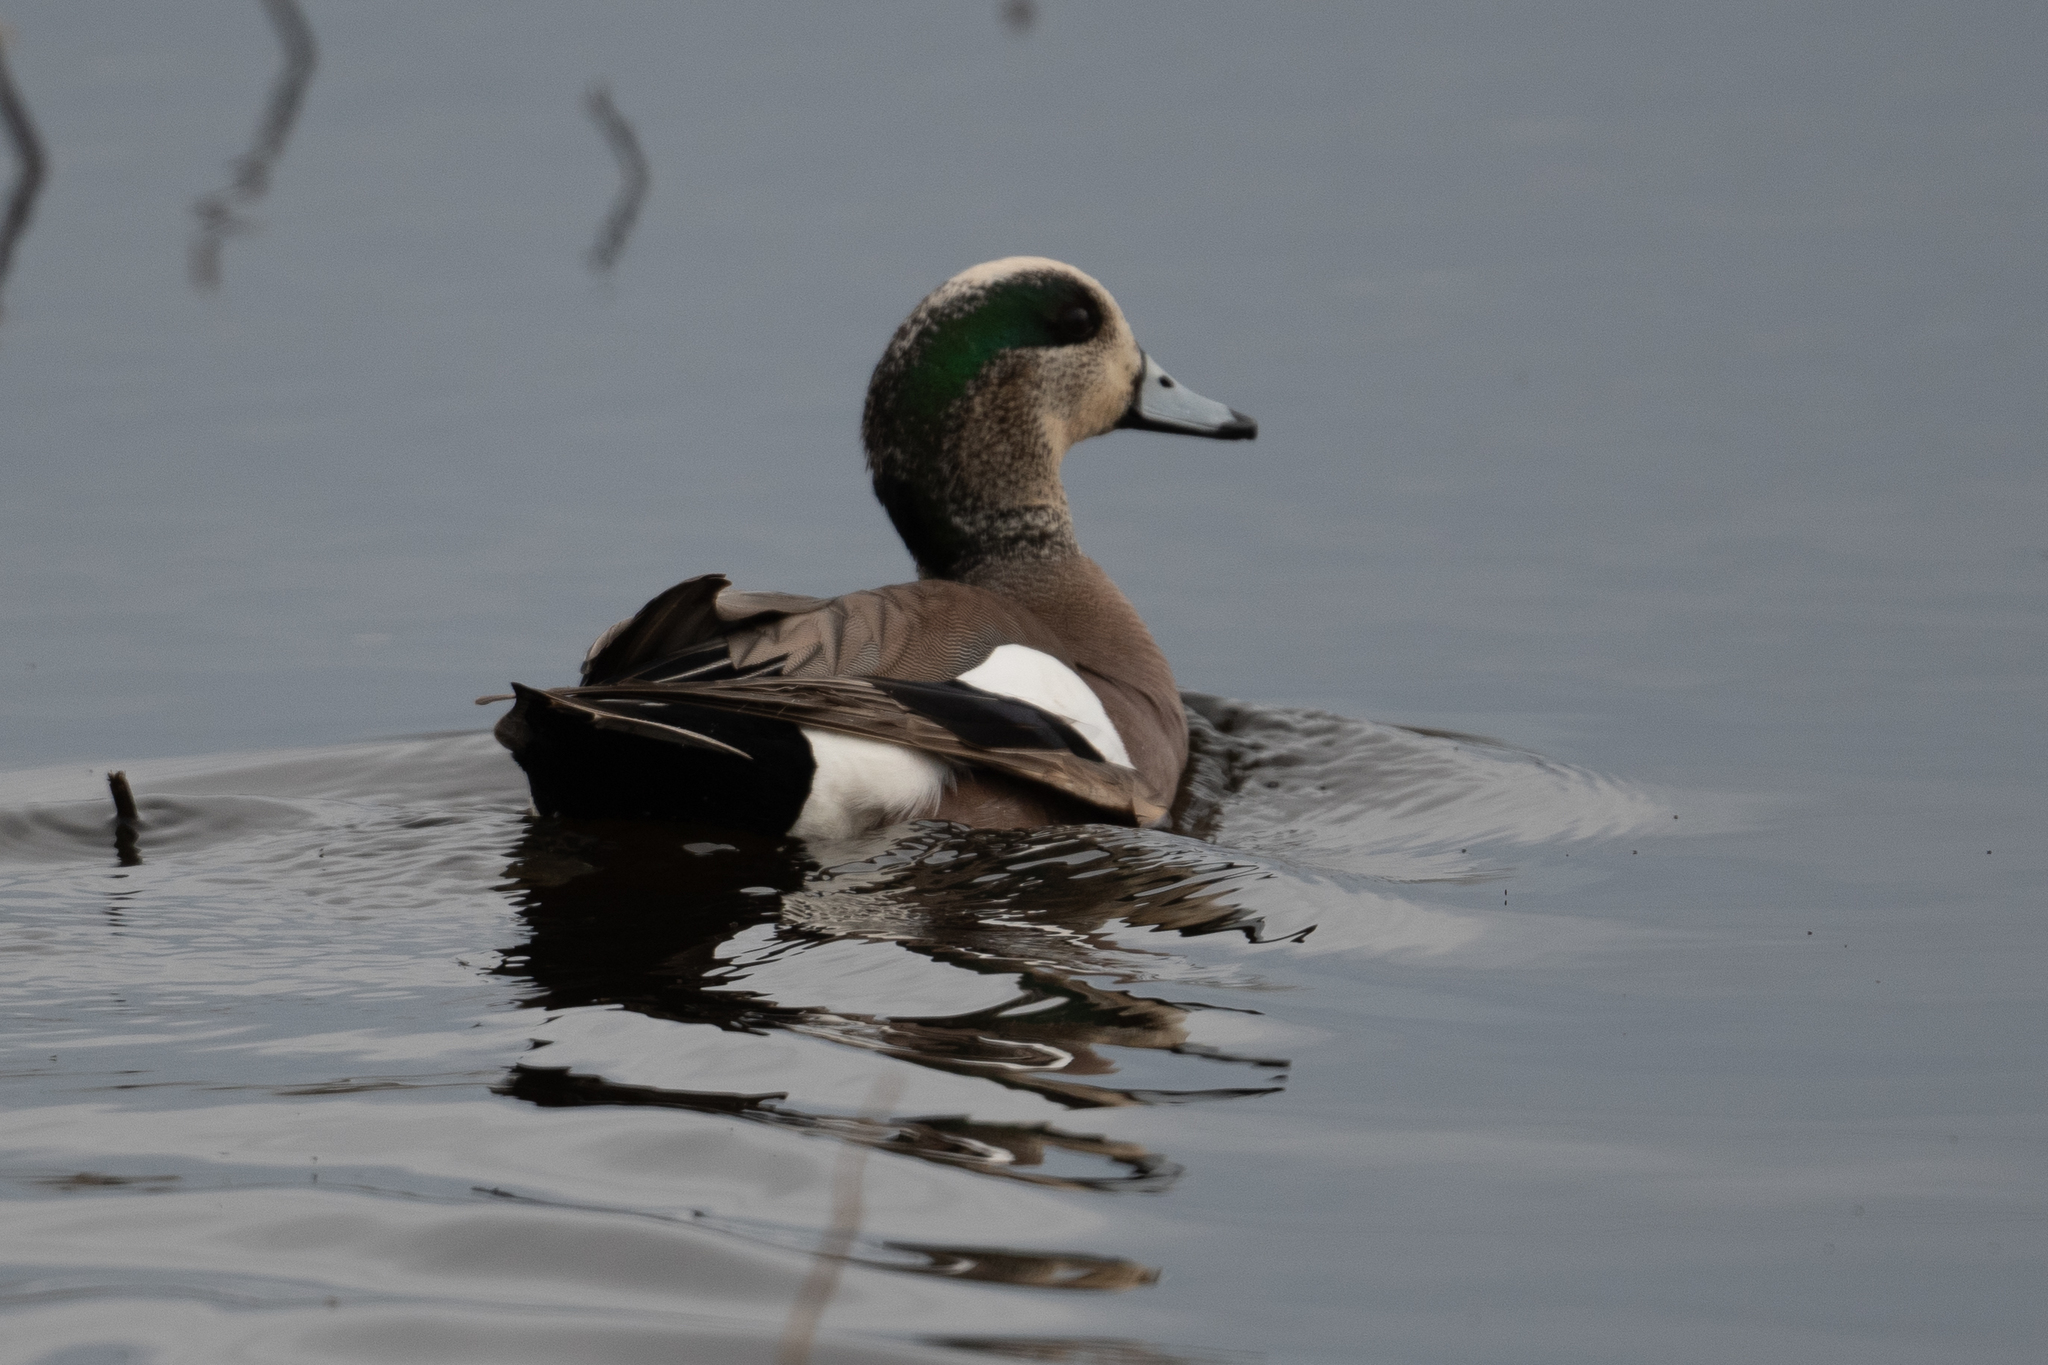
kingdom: Animalia
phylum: Chordata
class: Aves
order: Anseriformes
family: Anatidae
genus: Mareca
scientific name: Mareca americana
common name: American wigeon
